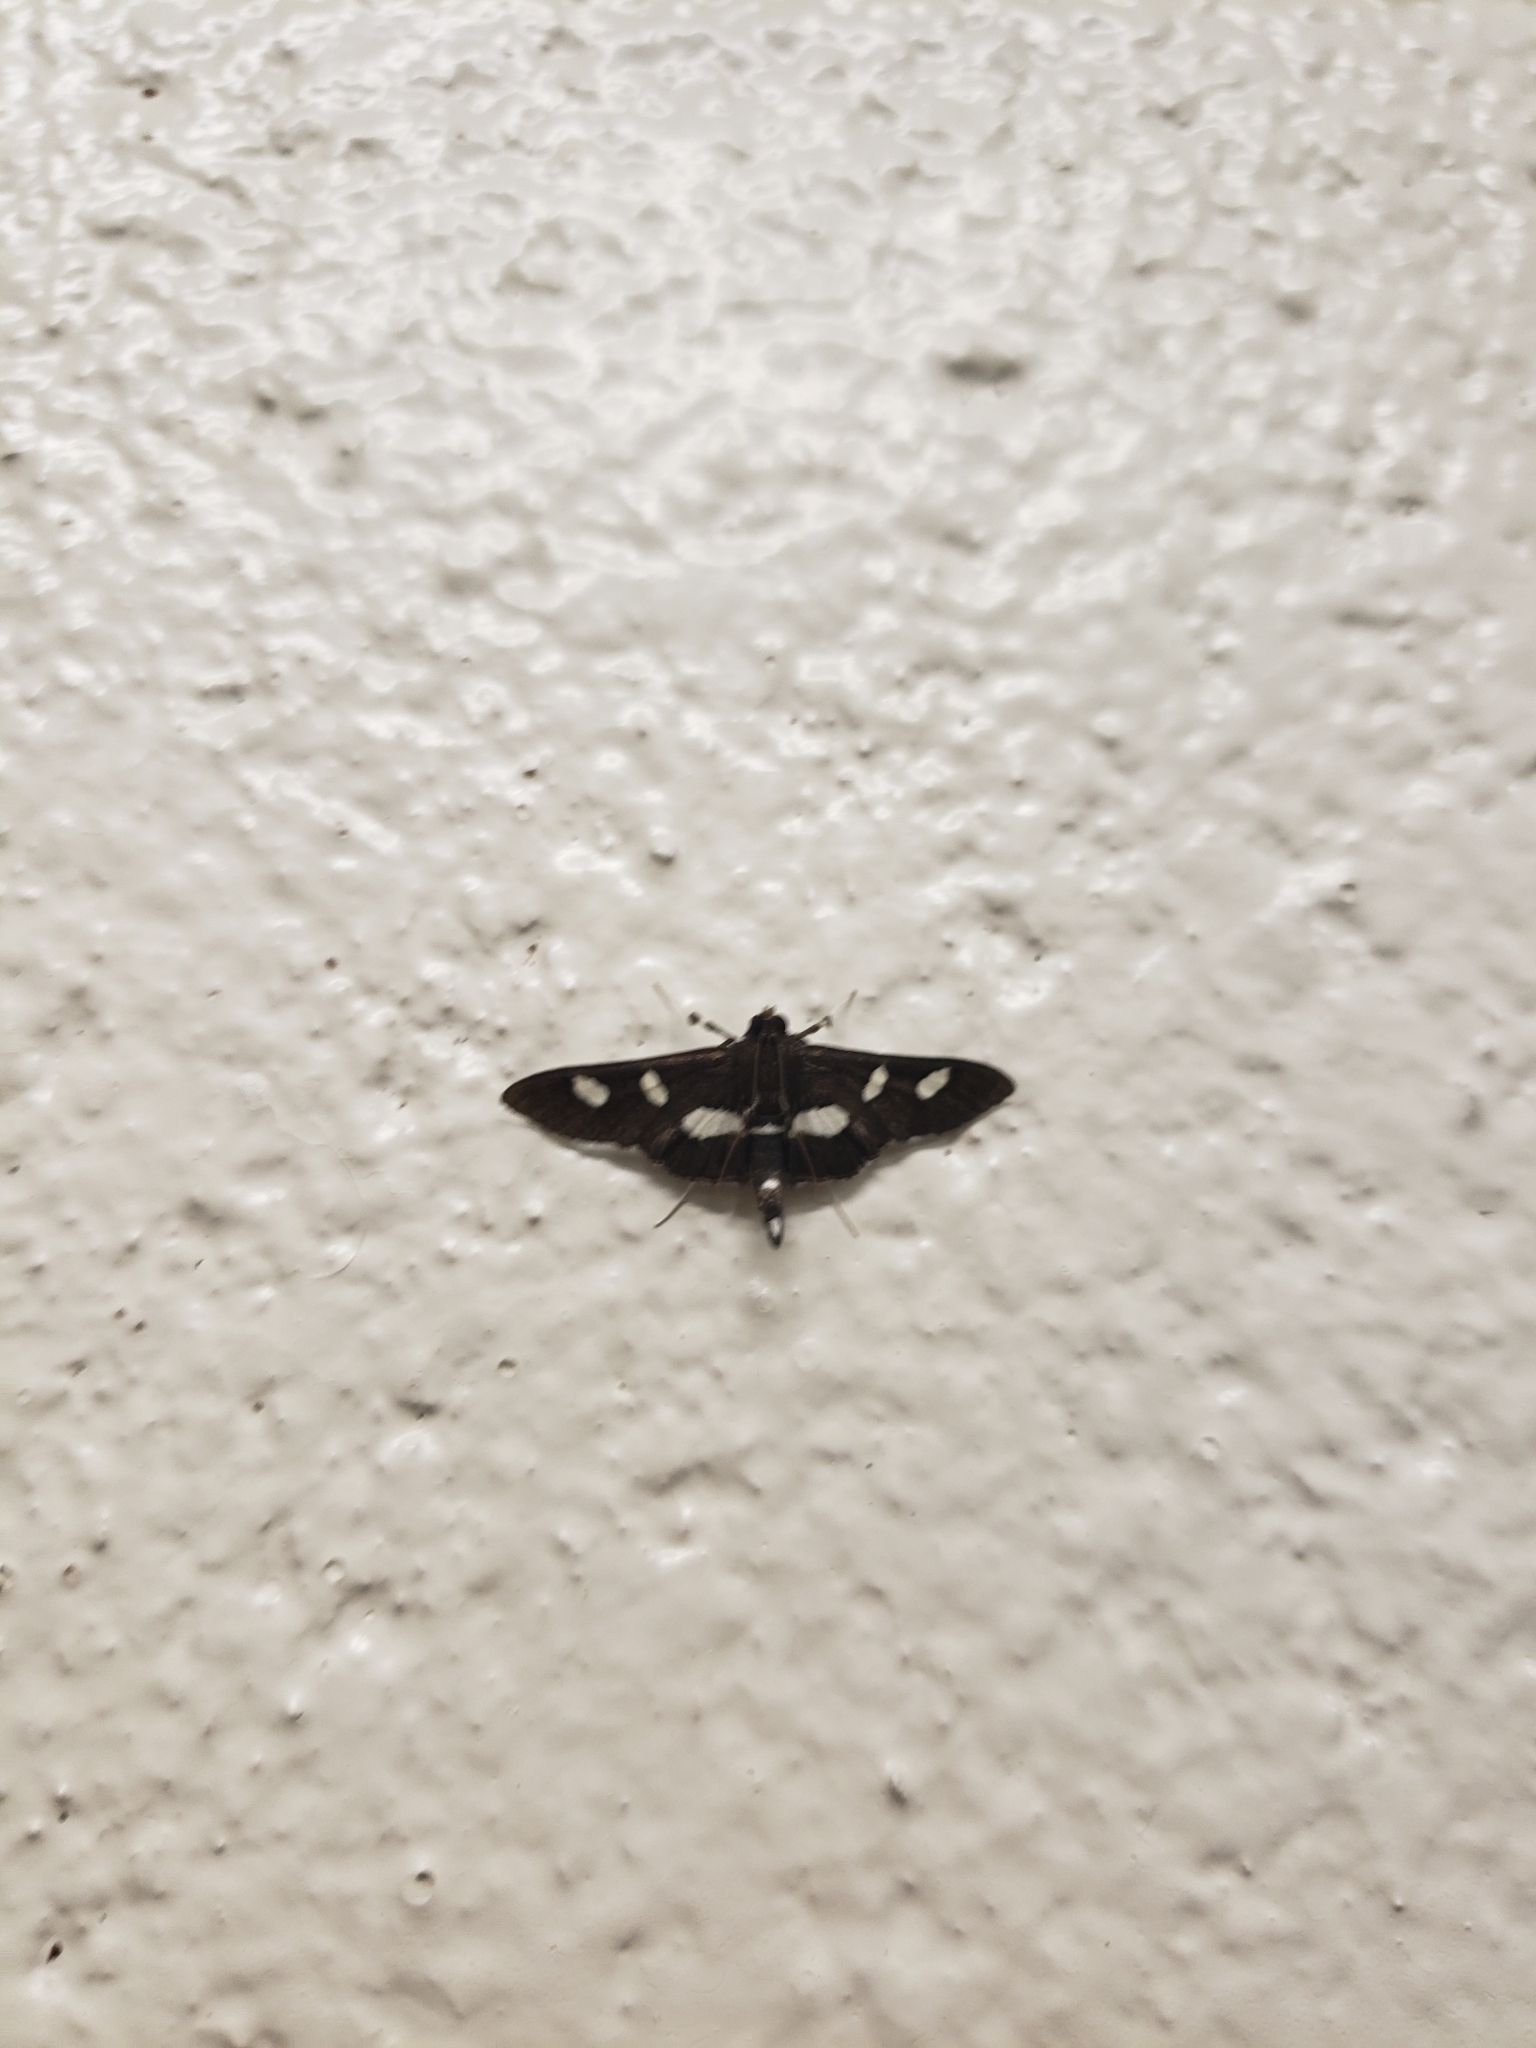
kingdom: Animalia
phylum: Arthropoda
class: Insecta
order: Lepidoptera
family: Crambidae
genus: Desmia
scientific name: Desmia
